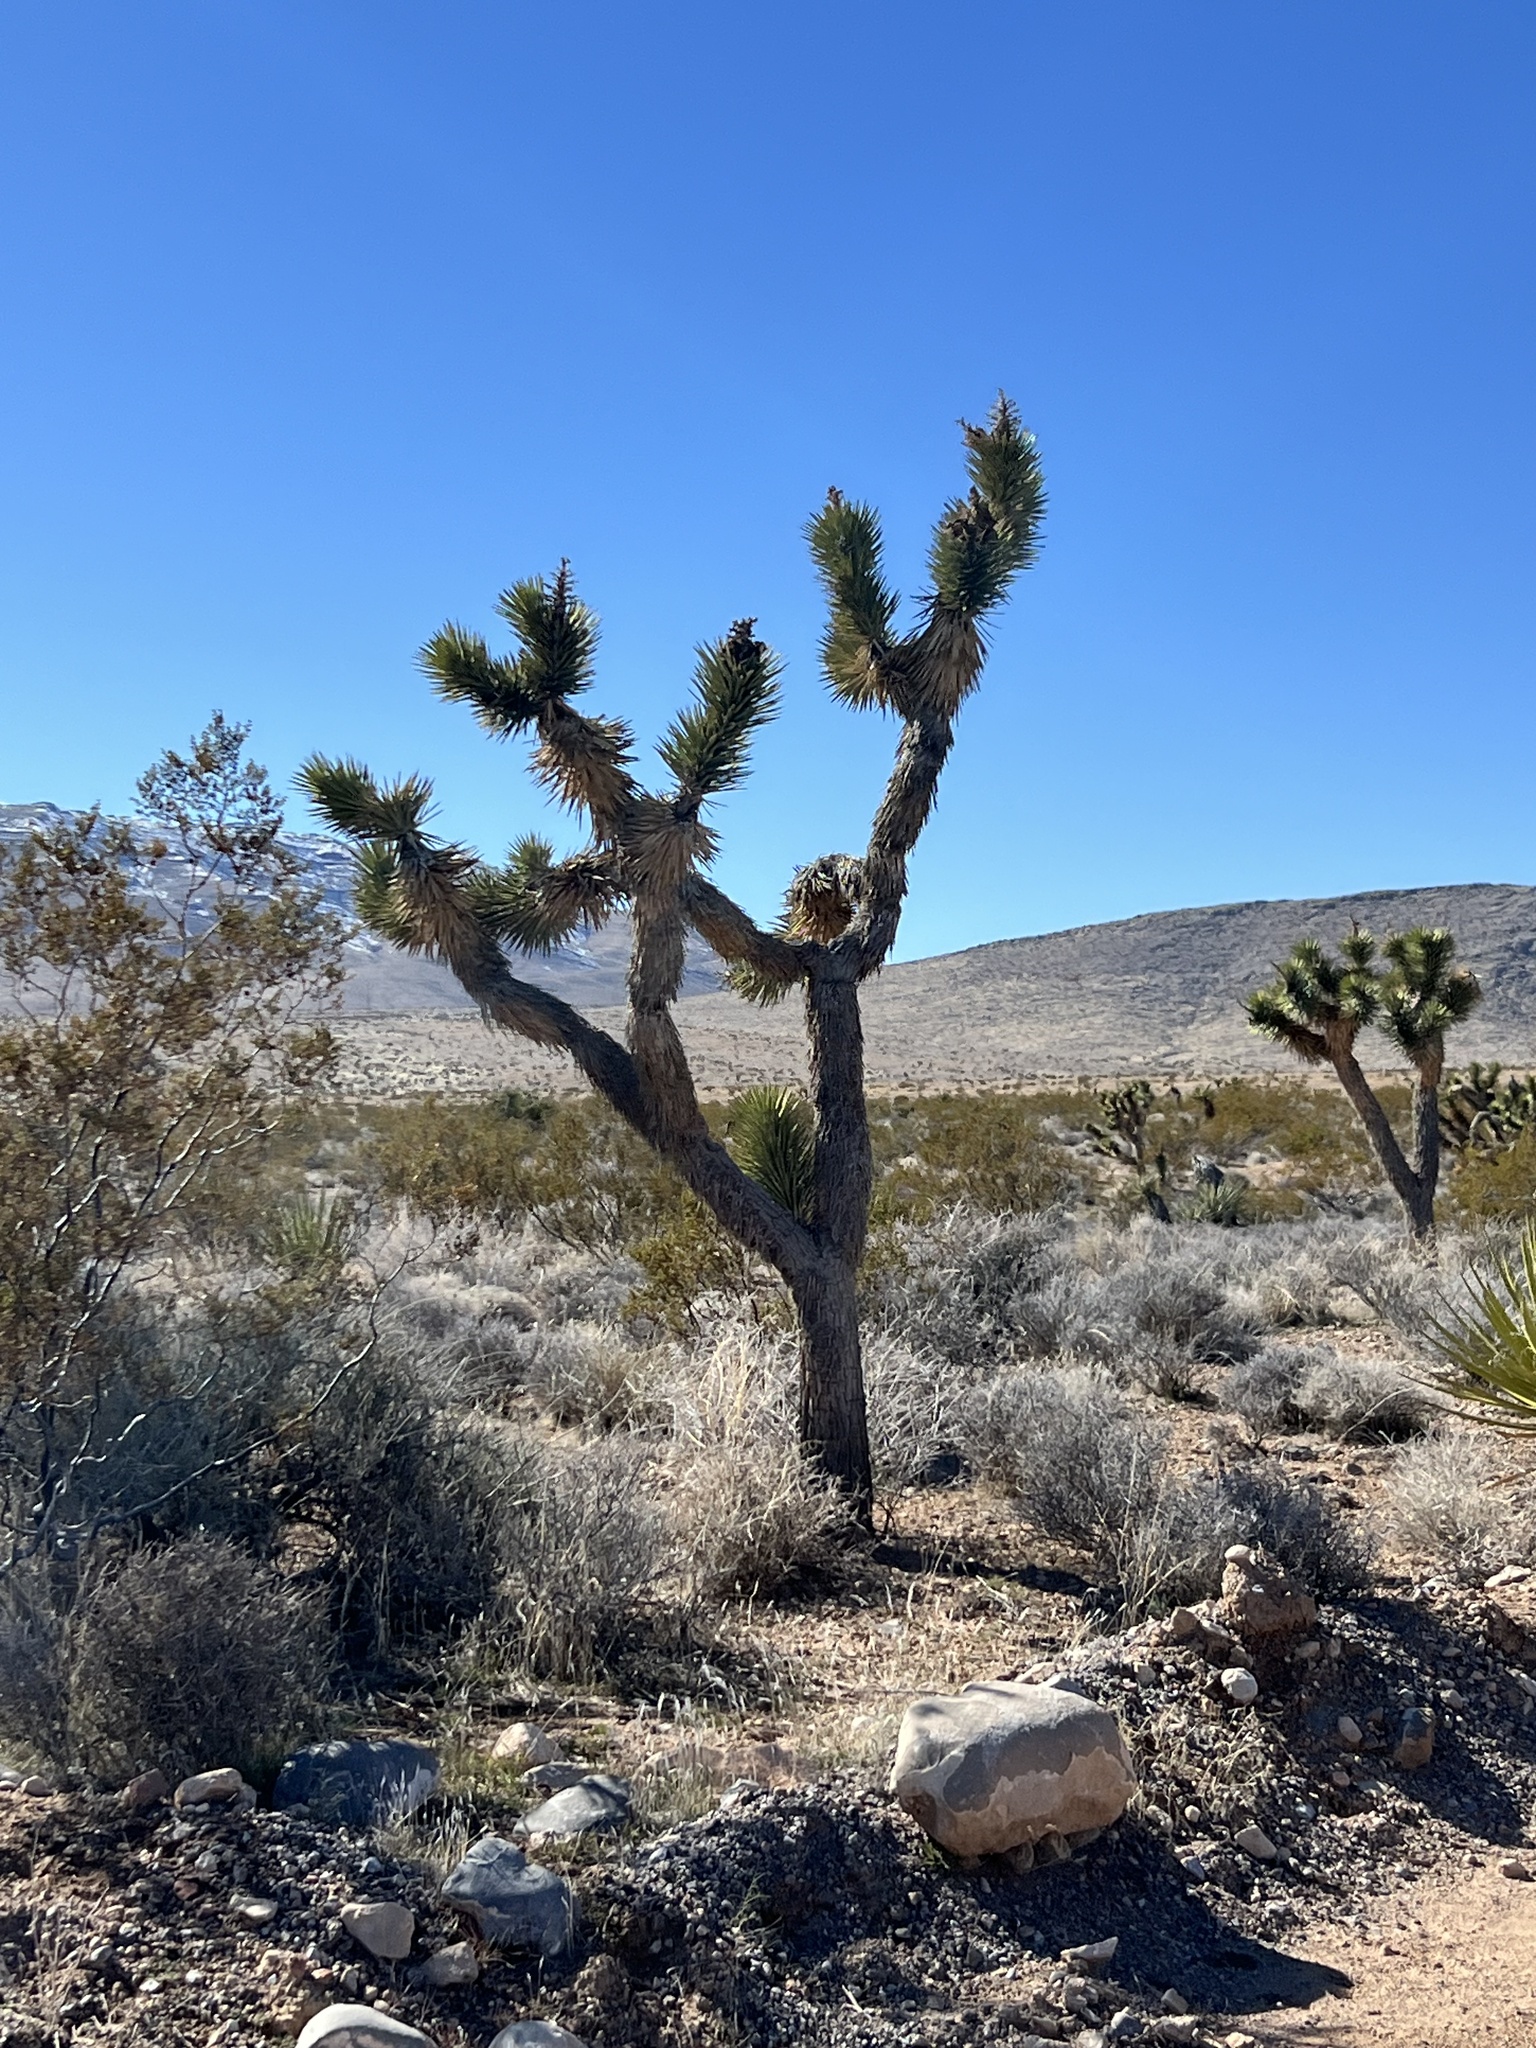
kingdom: Plantae
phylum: Tracheophyta
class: Liliopsida
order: Asparagales
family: Asparagaceae
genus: Yucca
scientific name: Yucca brevifolia
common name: Joshua tree
